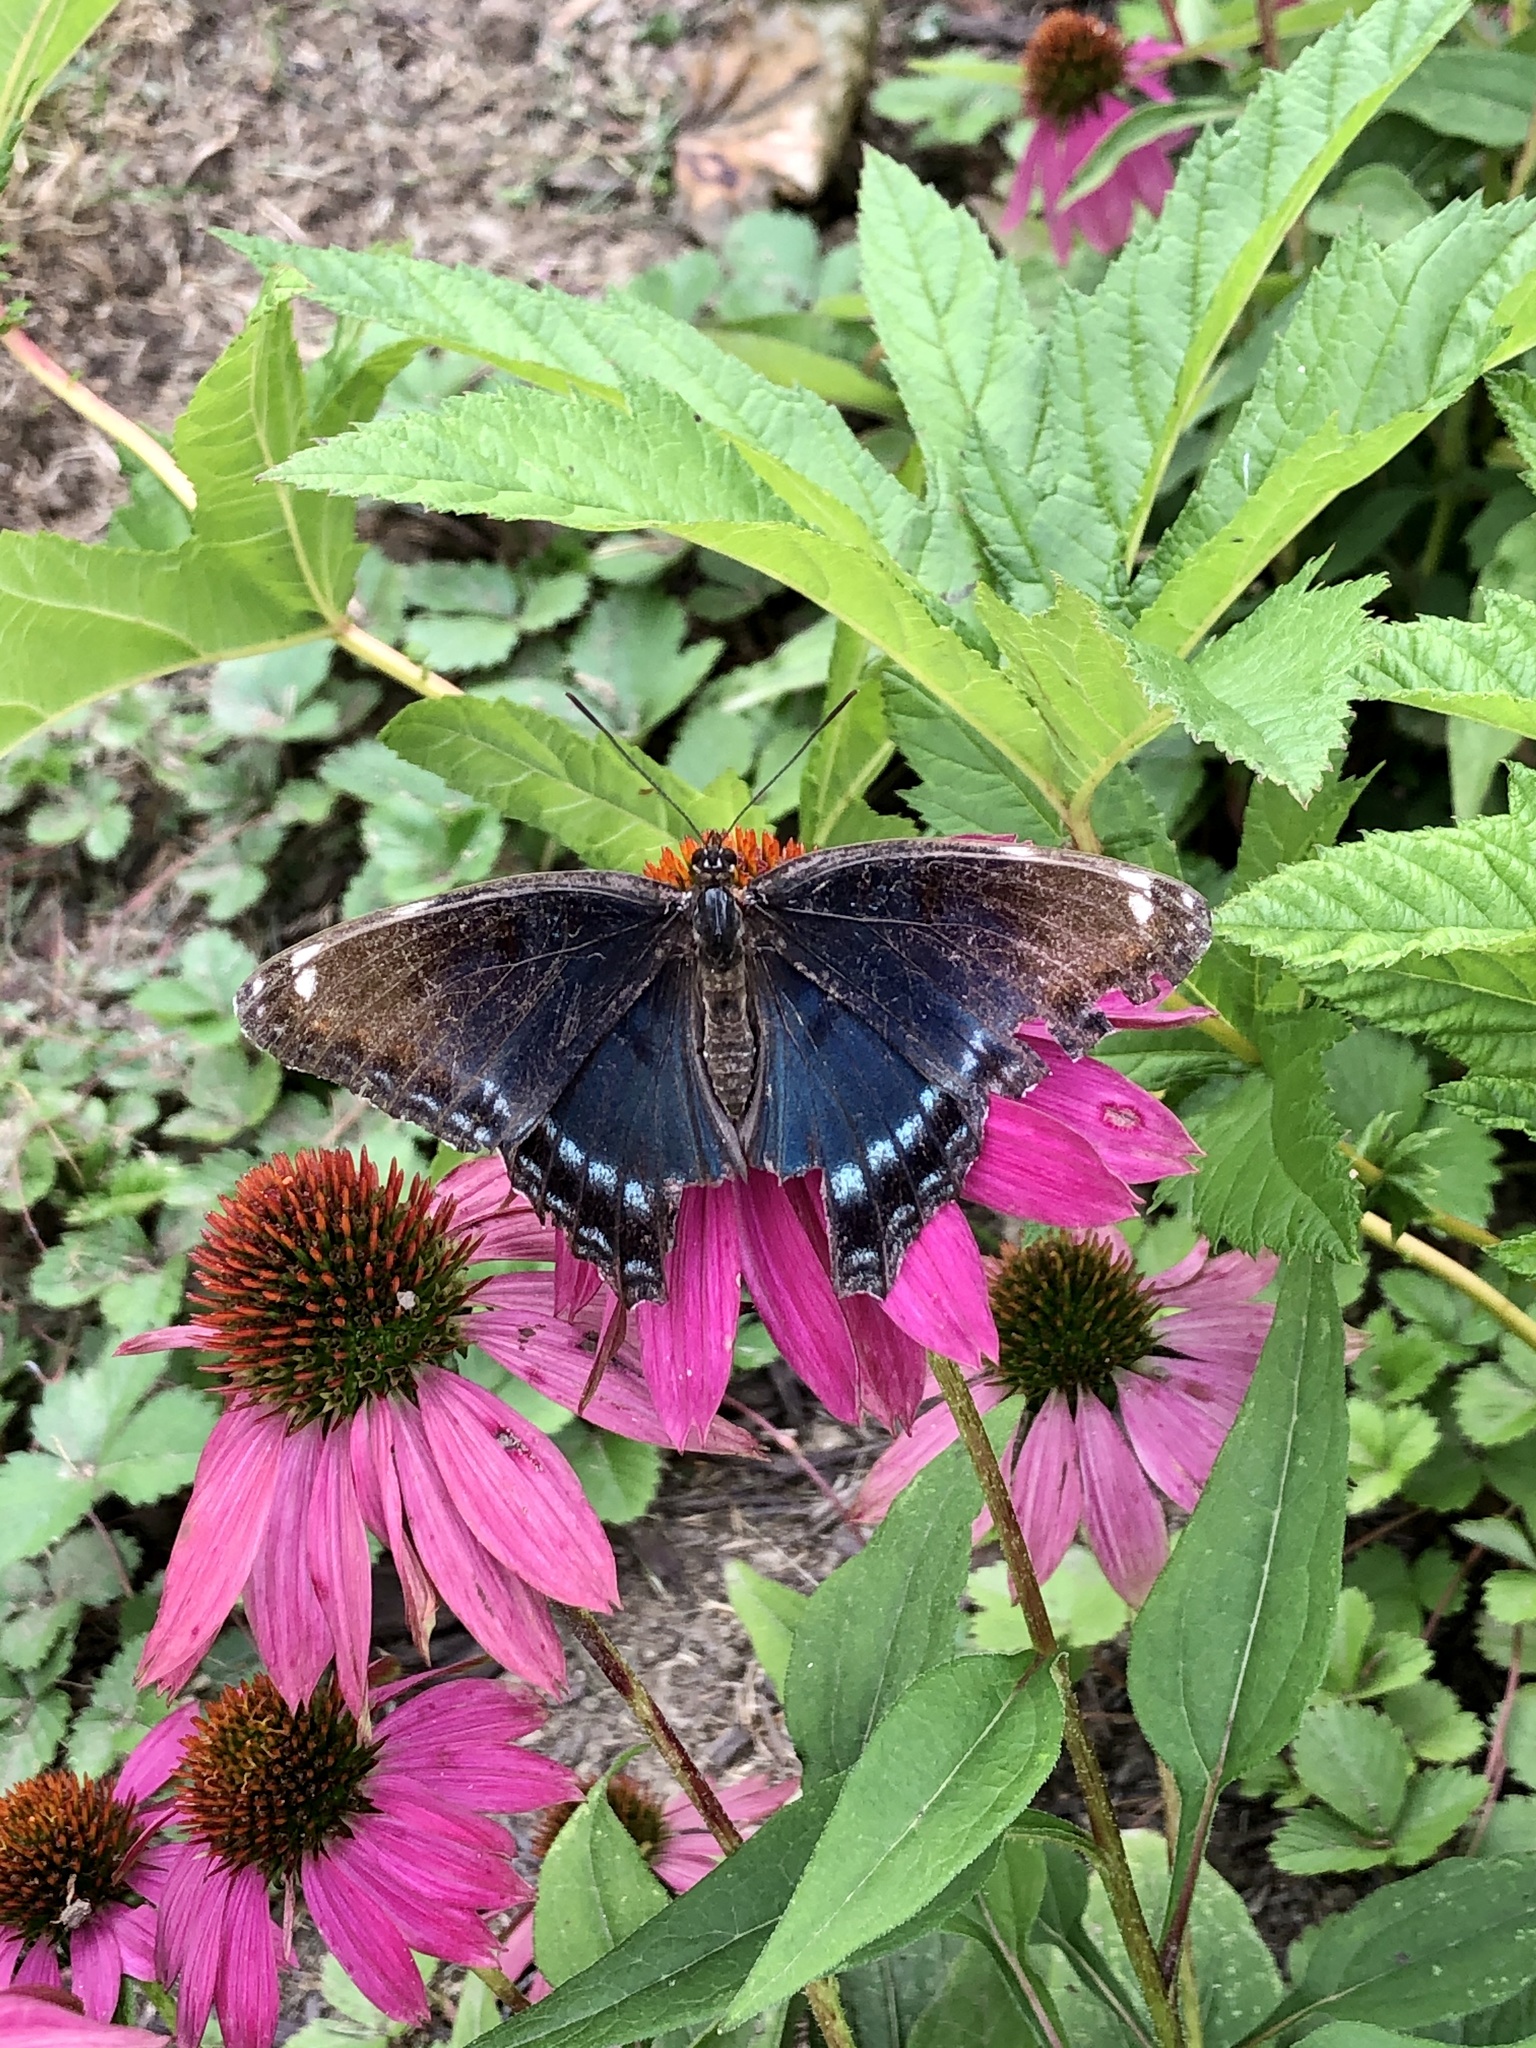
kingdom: Animalia
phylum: Arthropoda
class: Insecta
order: Lepidoptera
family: Nymphalidae
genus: Limenitis
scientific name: Limenitis
